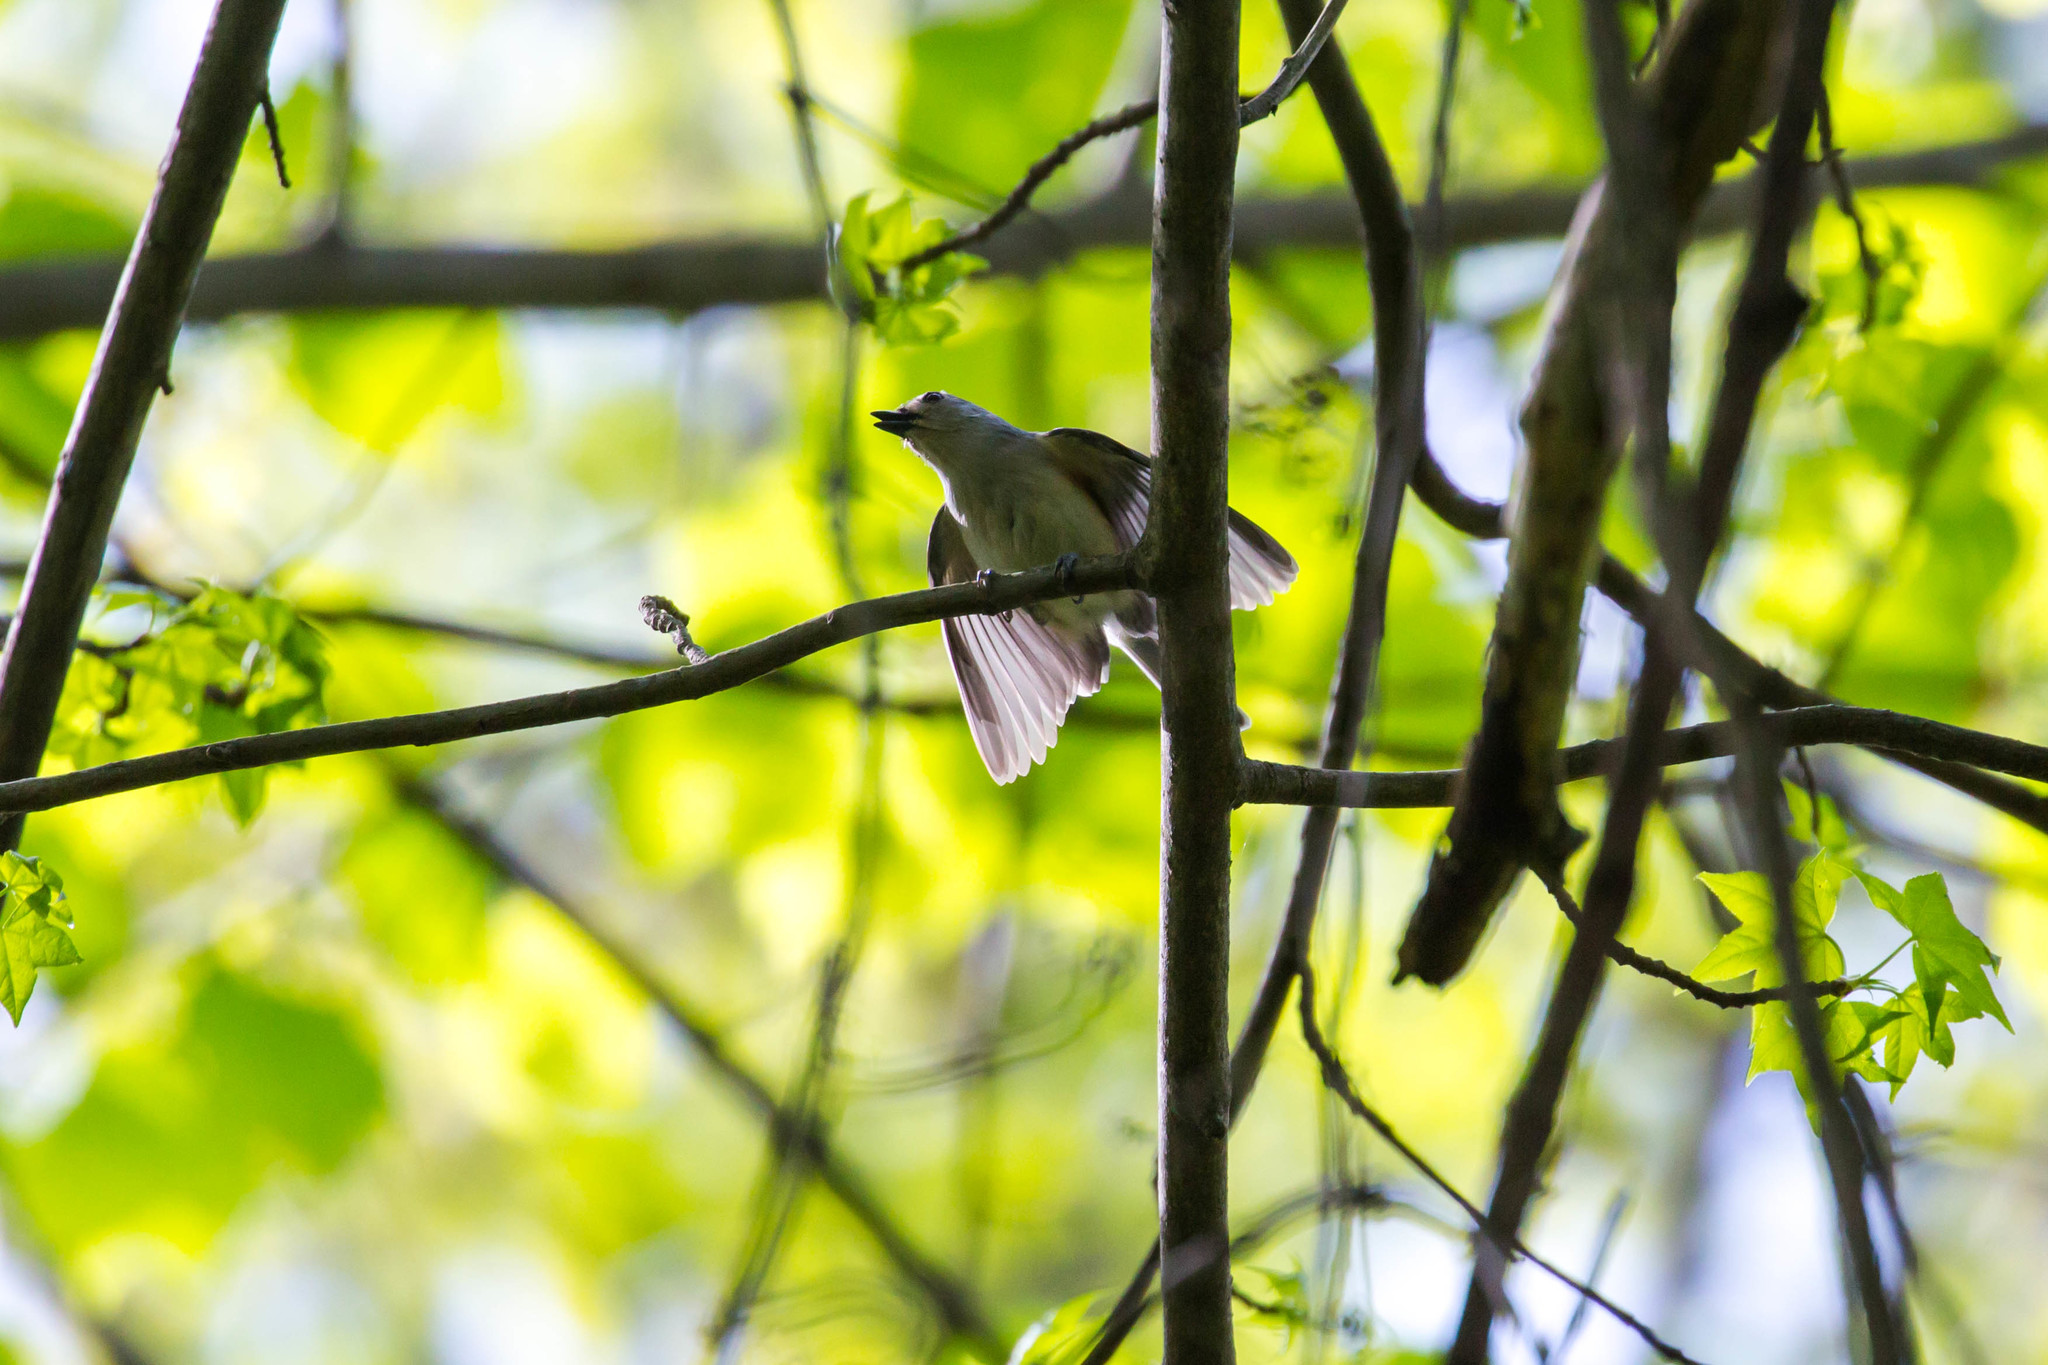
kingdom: Animalia
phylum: Chordata
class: Aves
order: Passeriformes
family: Paridae
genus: Baeolophus
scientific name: Baeolophus bicolor
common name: Tufted titmouse
